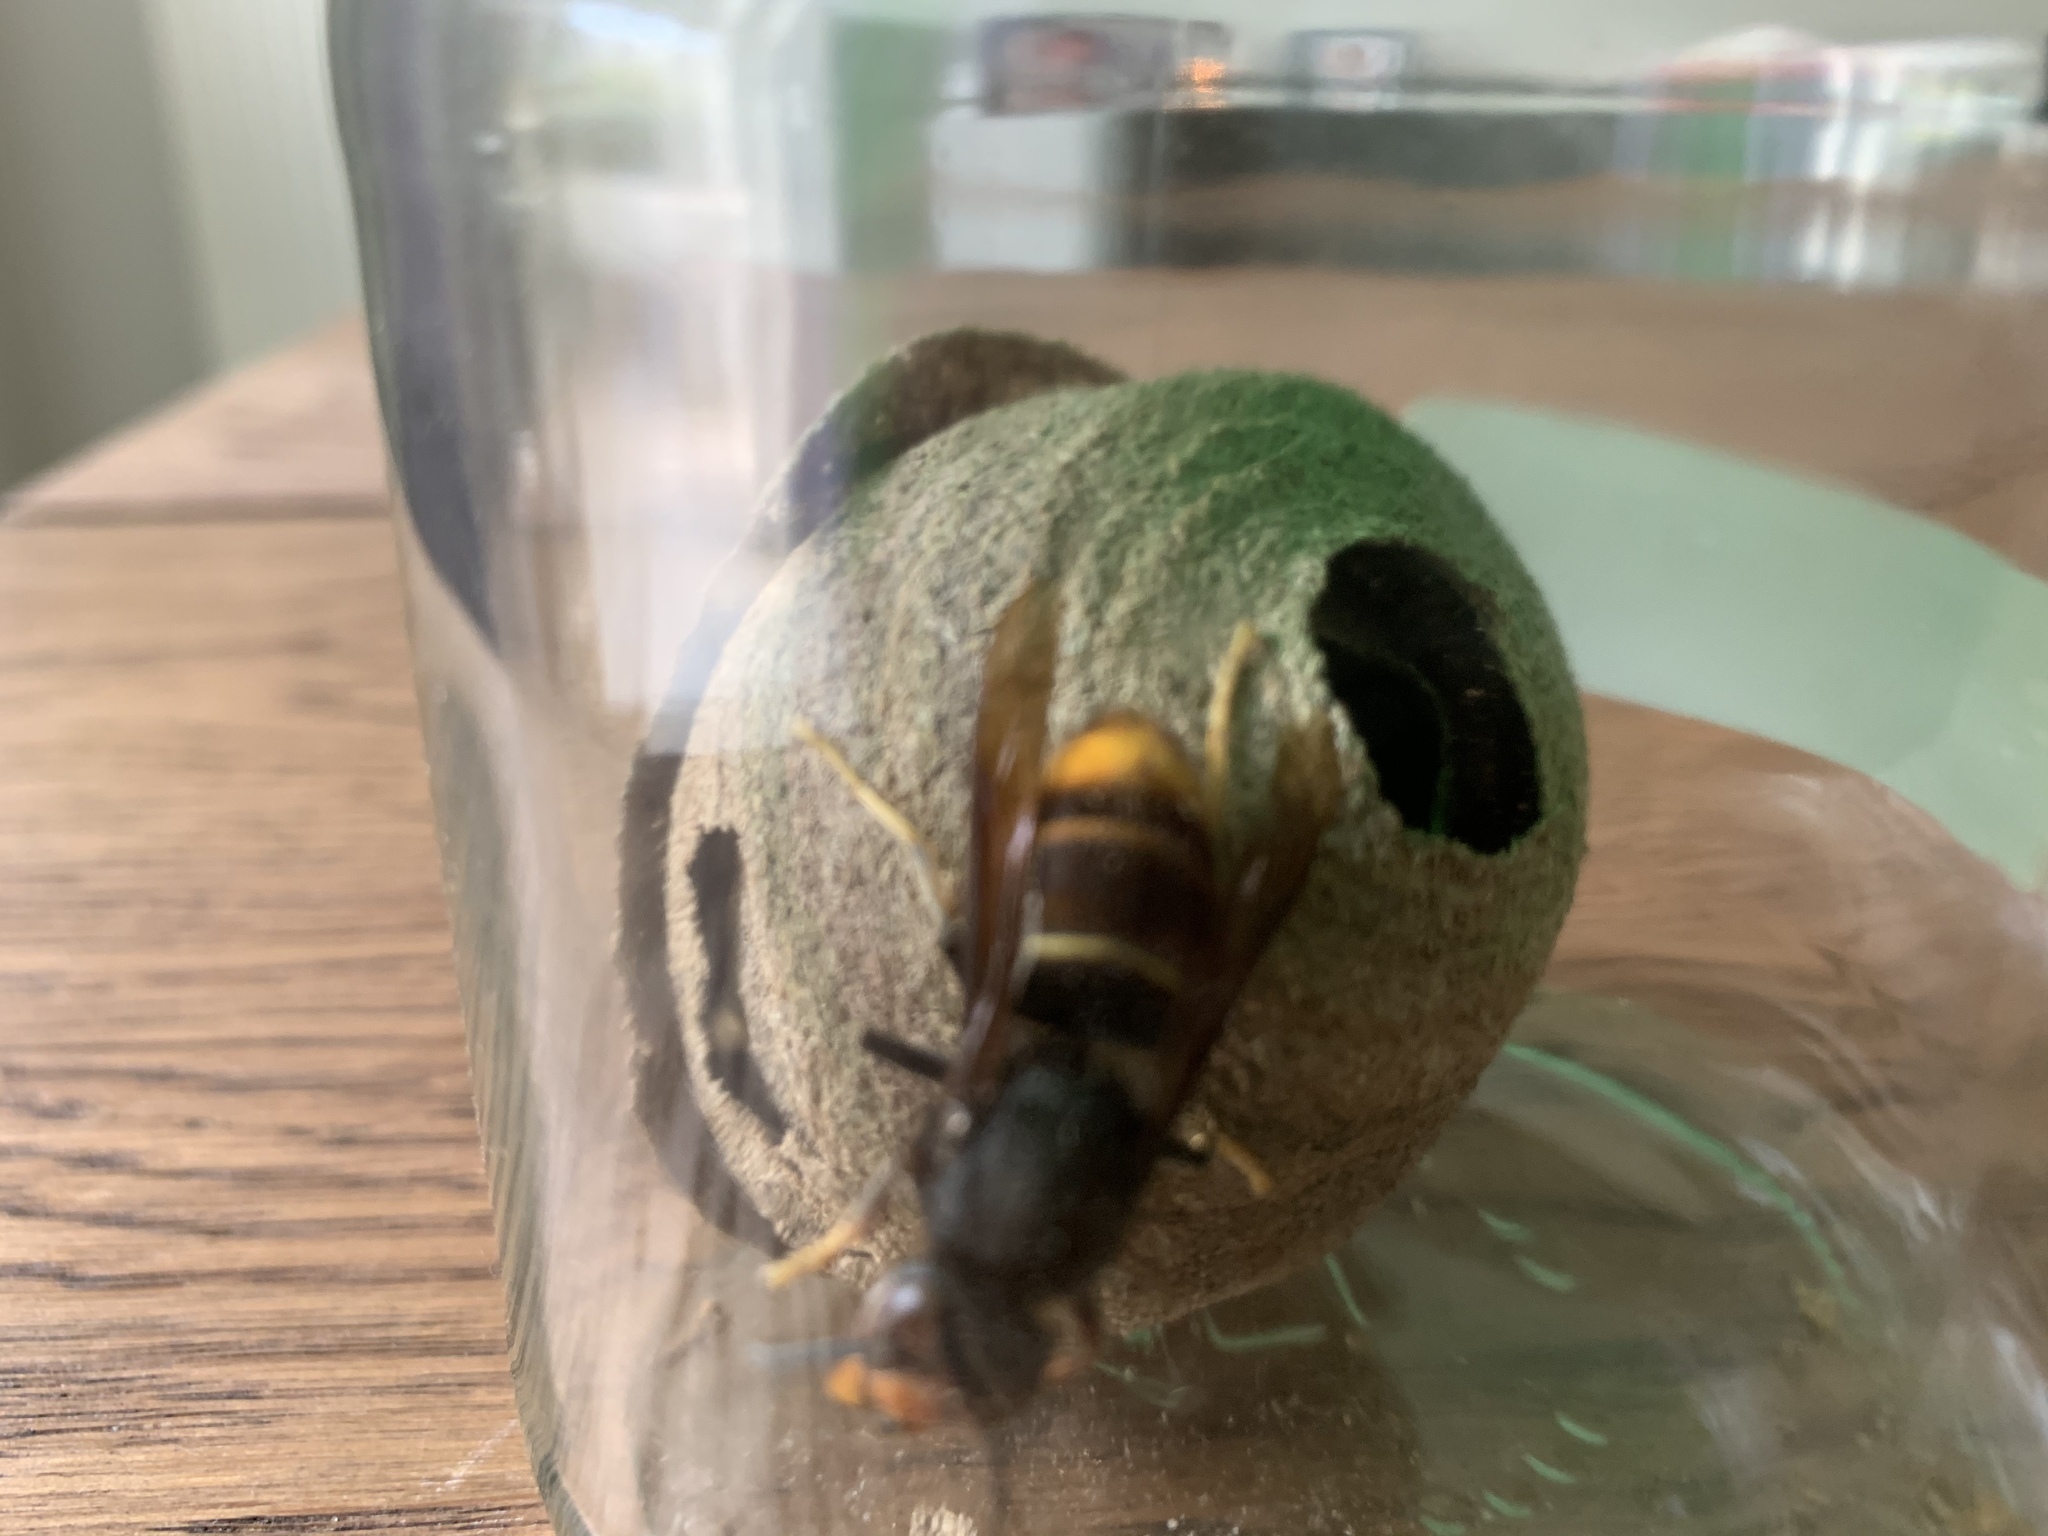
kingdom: Animalia
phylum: Arthropoda
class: Insecta
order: Hymenoptera
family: Vespidae
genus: Vespa
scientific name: Vespa velutina
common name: Asian hornet
